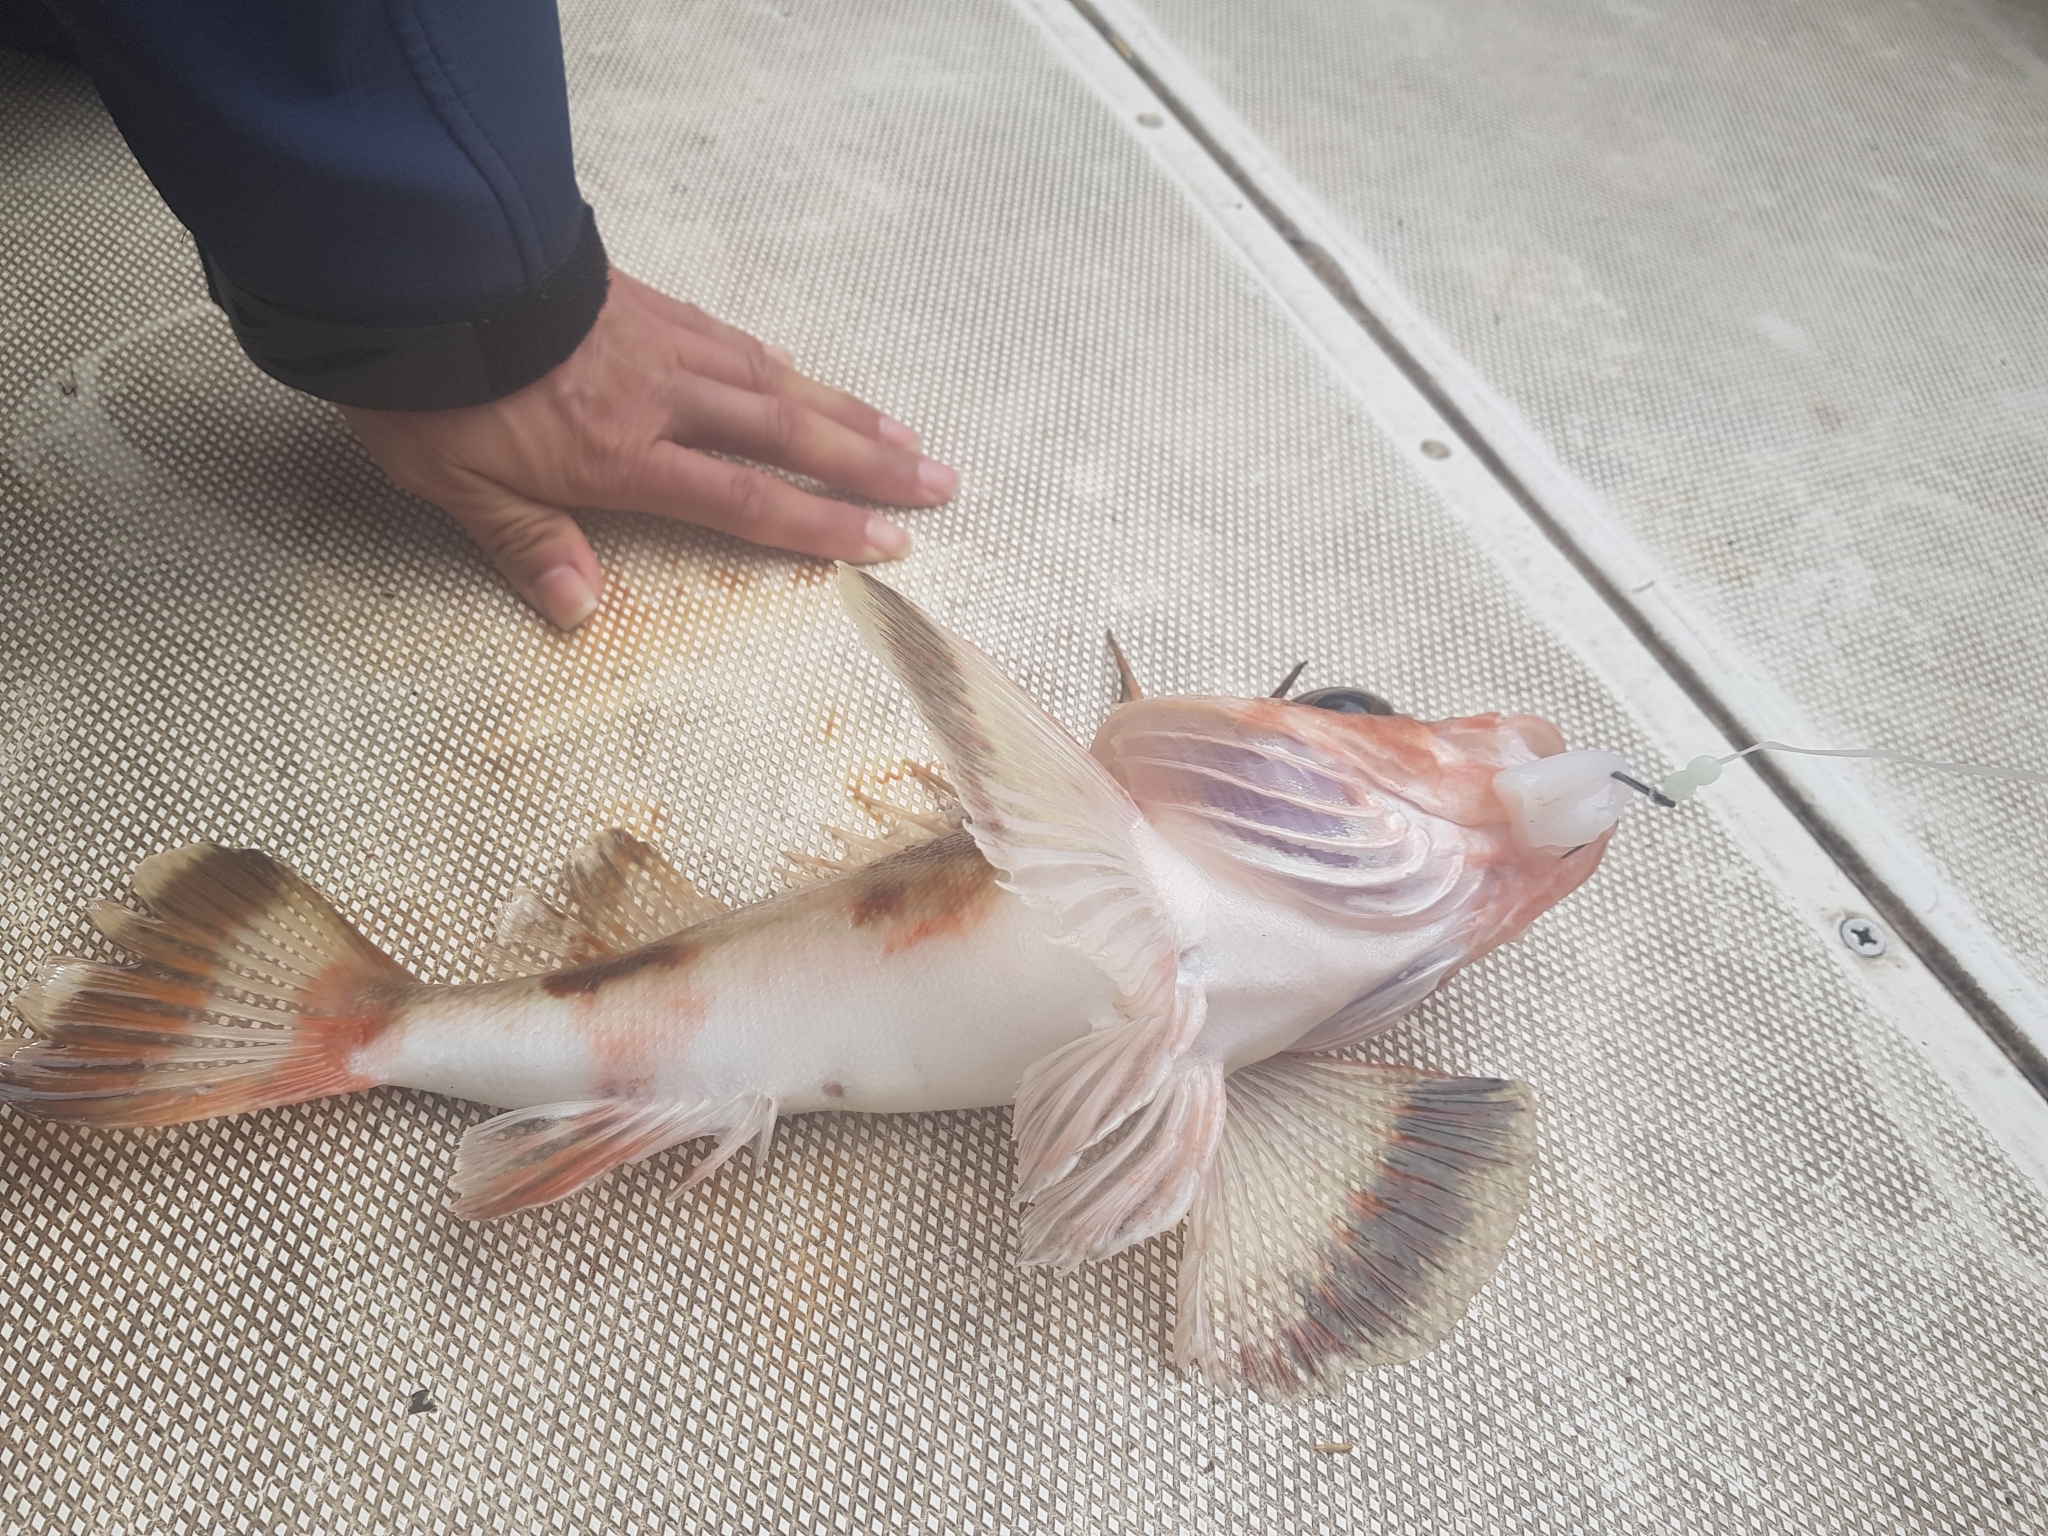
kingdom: Animalia
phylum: Chordata
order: Scorpaeniformes
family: Neosebastidae
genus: Neosebastes
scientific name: Neosebastes scorpaenoides
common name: Cobbler perch
